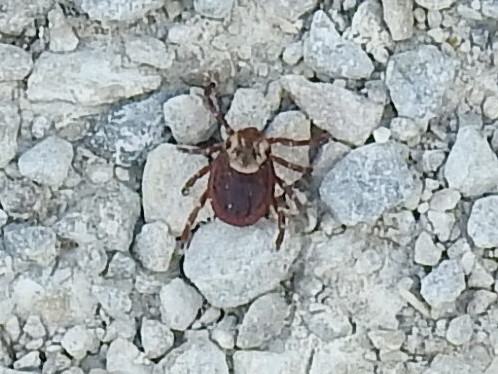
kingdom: Animalia
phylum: Arthropoda
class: Arachnida
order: Ixodida
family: Ixodidae
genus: Dermacentor
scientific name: Dermacentor variabilis
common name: American dog tick
